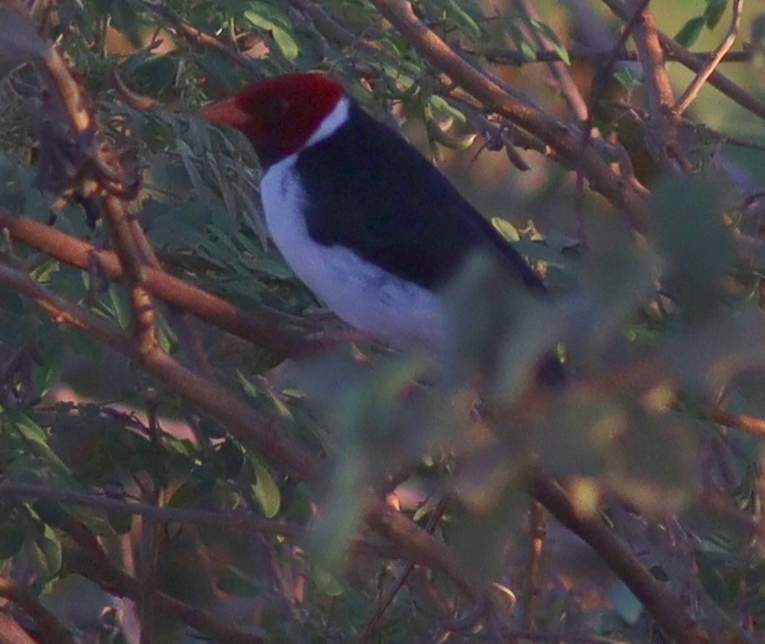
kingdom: Animalia
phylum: Chordata
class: Aves
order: Passeriformes
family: Thraupidae
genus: Paroaria
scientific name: Paroaria capitata
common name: Yellow-billed cardinal
